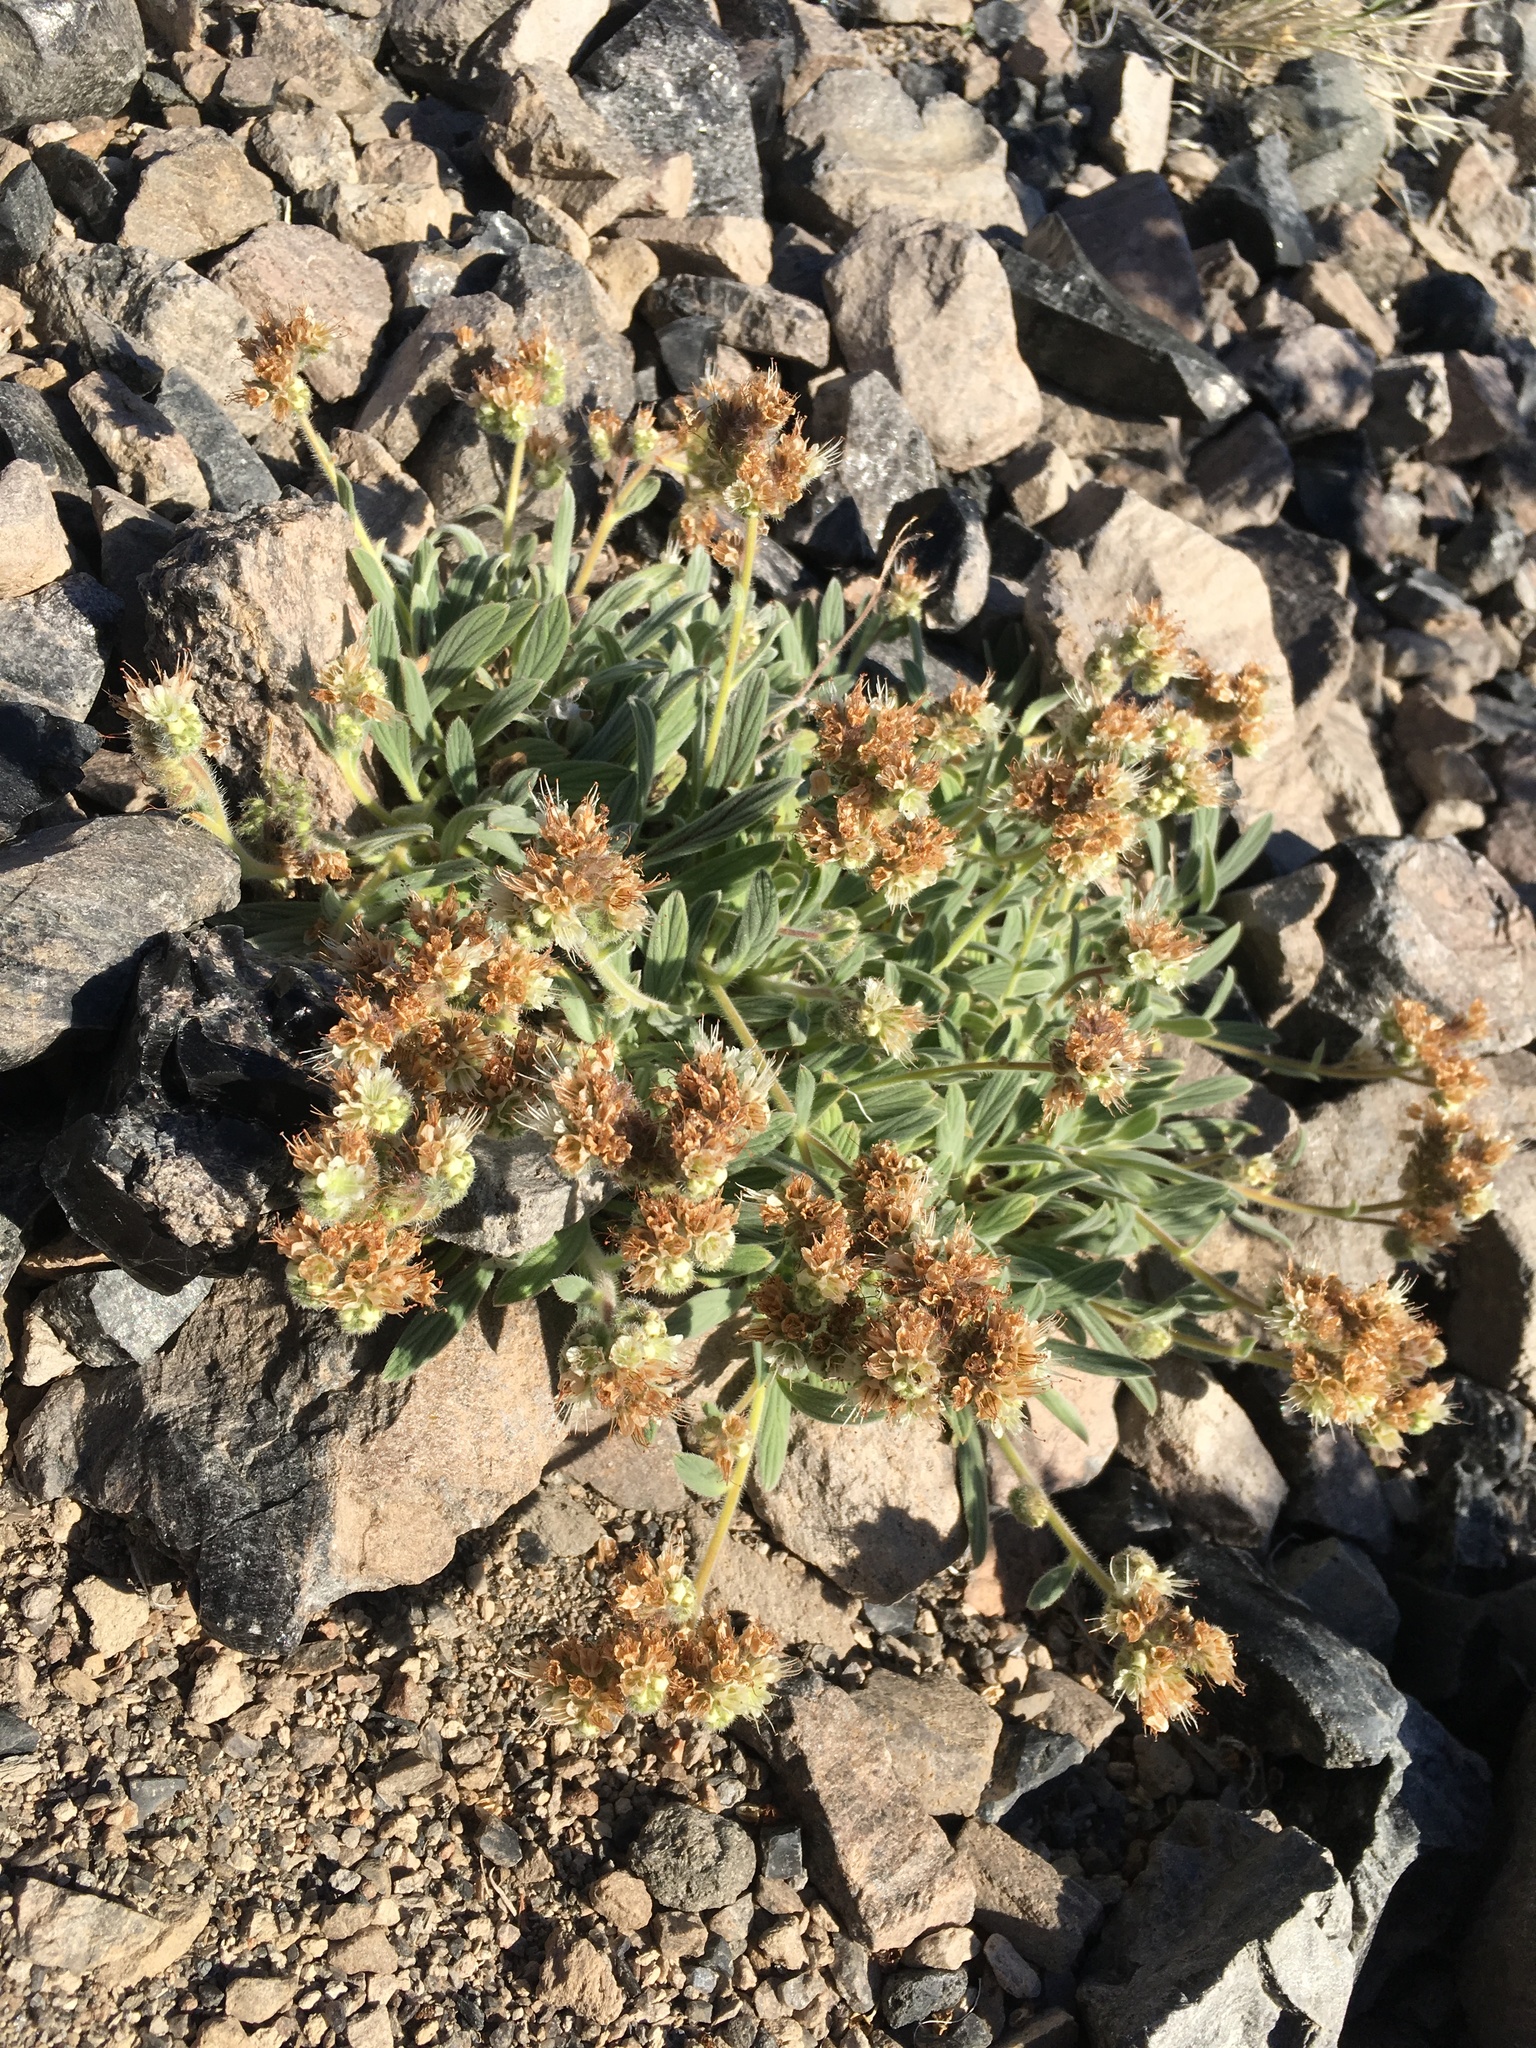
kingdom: Plantae
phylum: Tracheophyta
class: Magnoliopsida
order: Boraginales
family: Hydrophyllaceae
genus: Phacelia
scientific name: Phacelia hastata
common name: Silver-leaved phacelia
